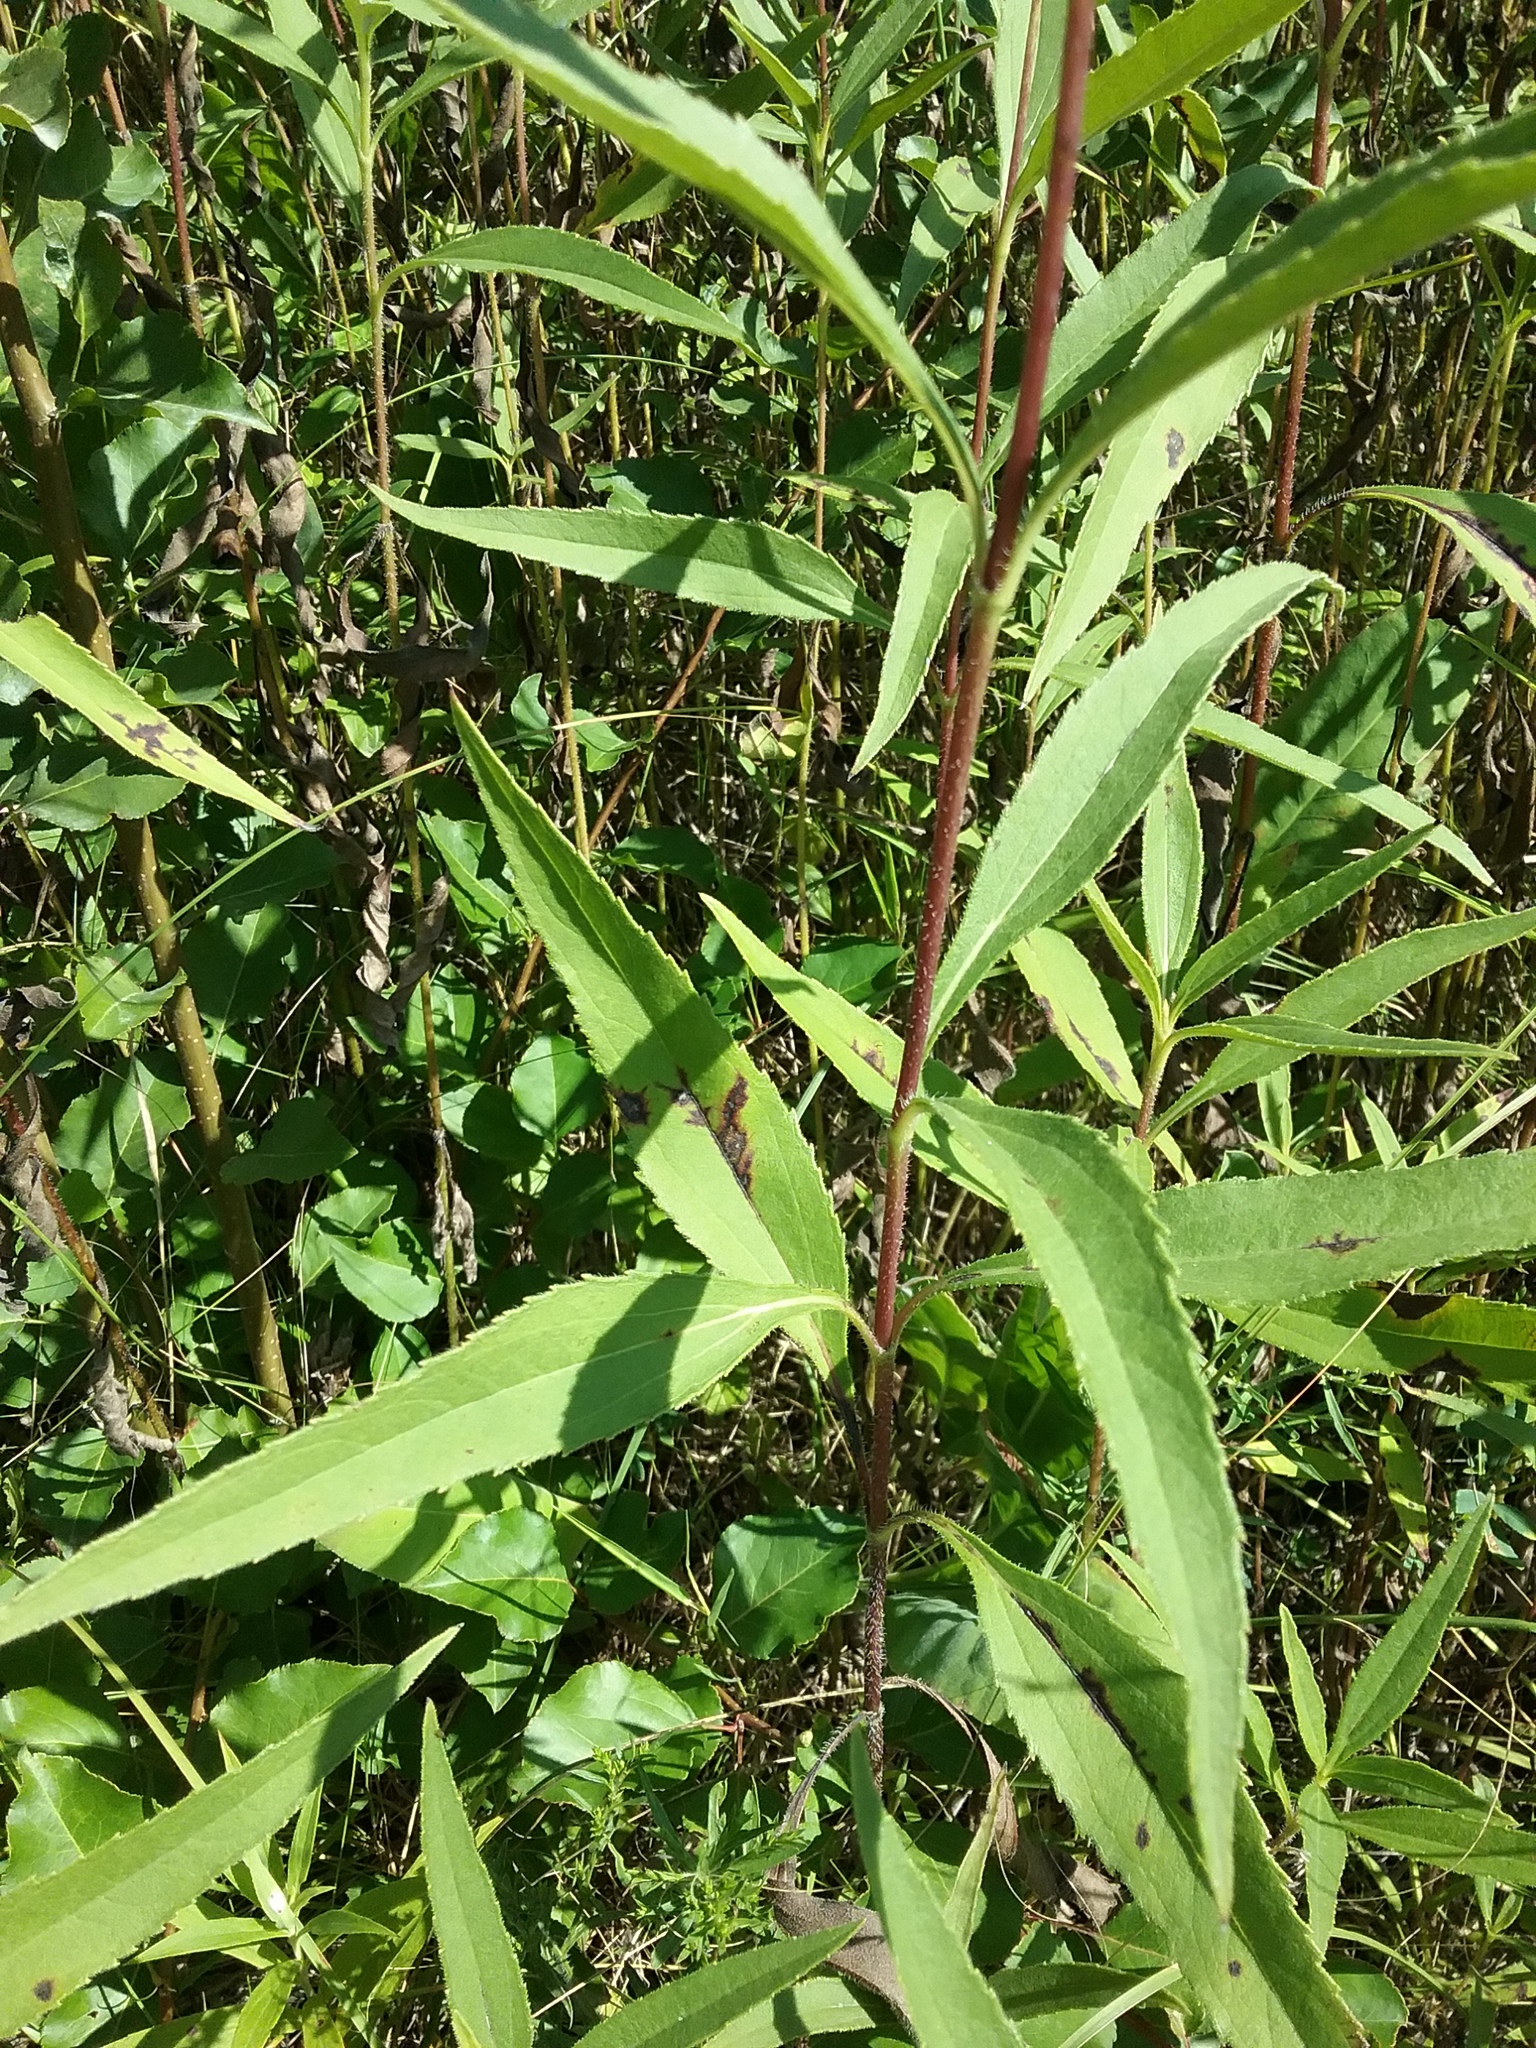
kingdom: Plantae
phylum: Tracheophyta
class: Magnoliopsida
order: Asterales
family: Asteraceae
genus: Helianthus
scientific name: Helianthus grosseserratus
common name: Sawtooth sunflower
